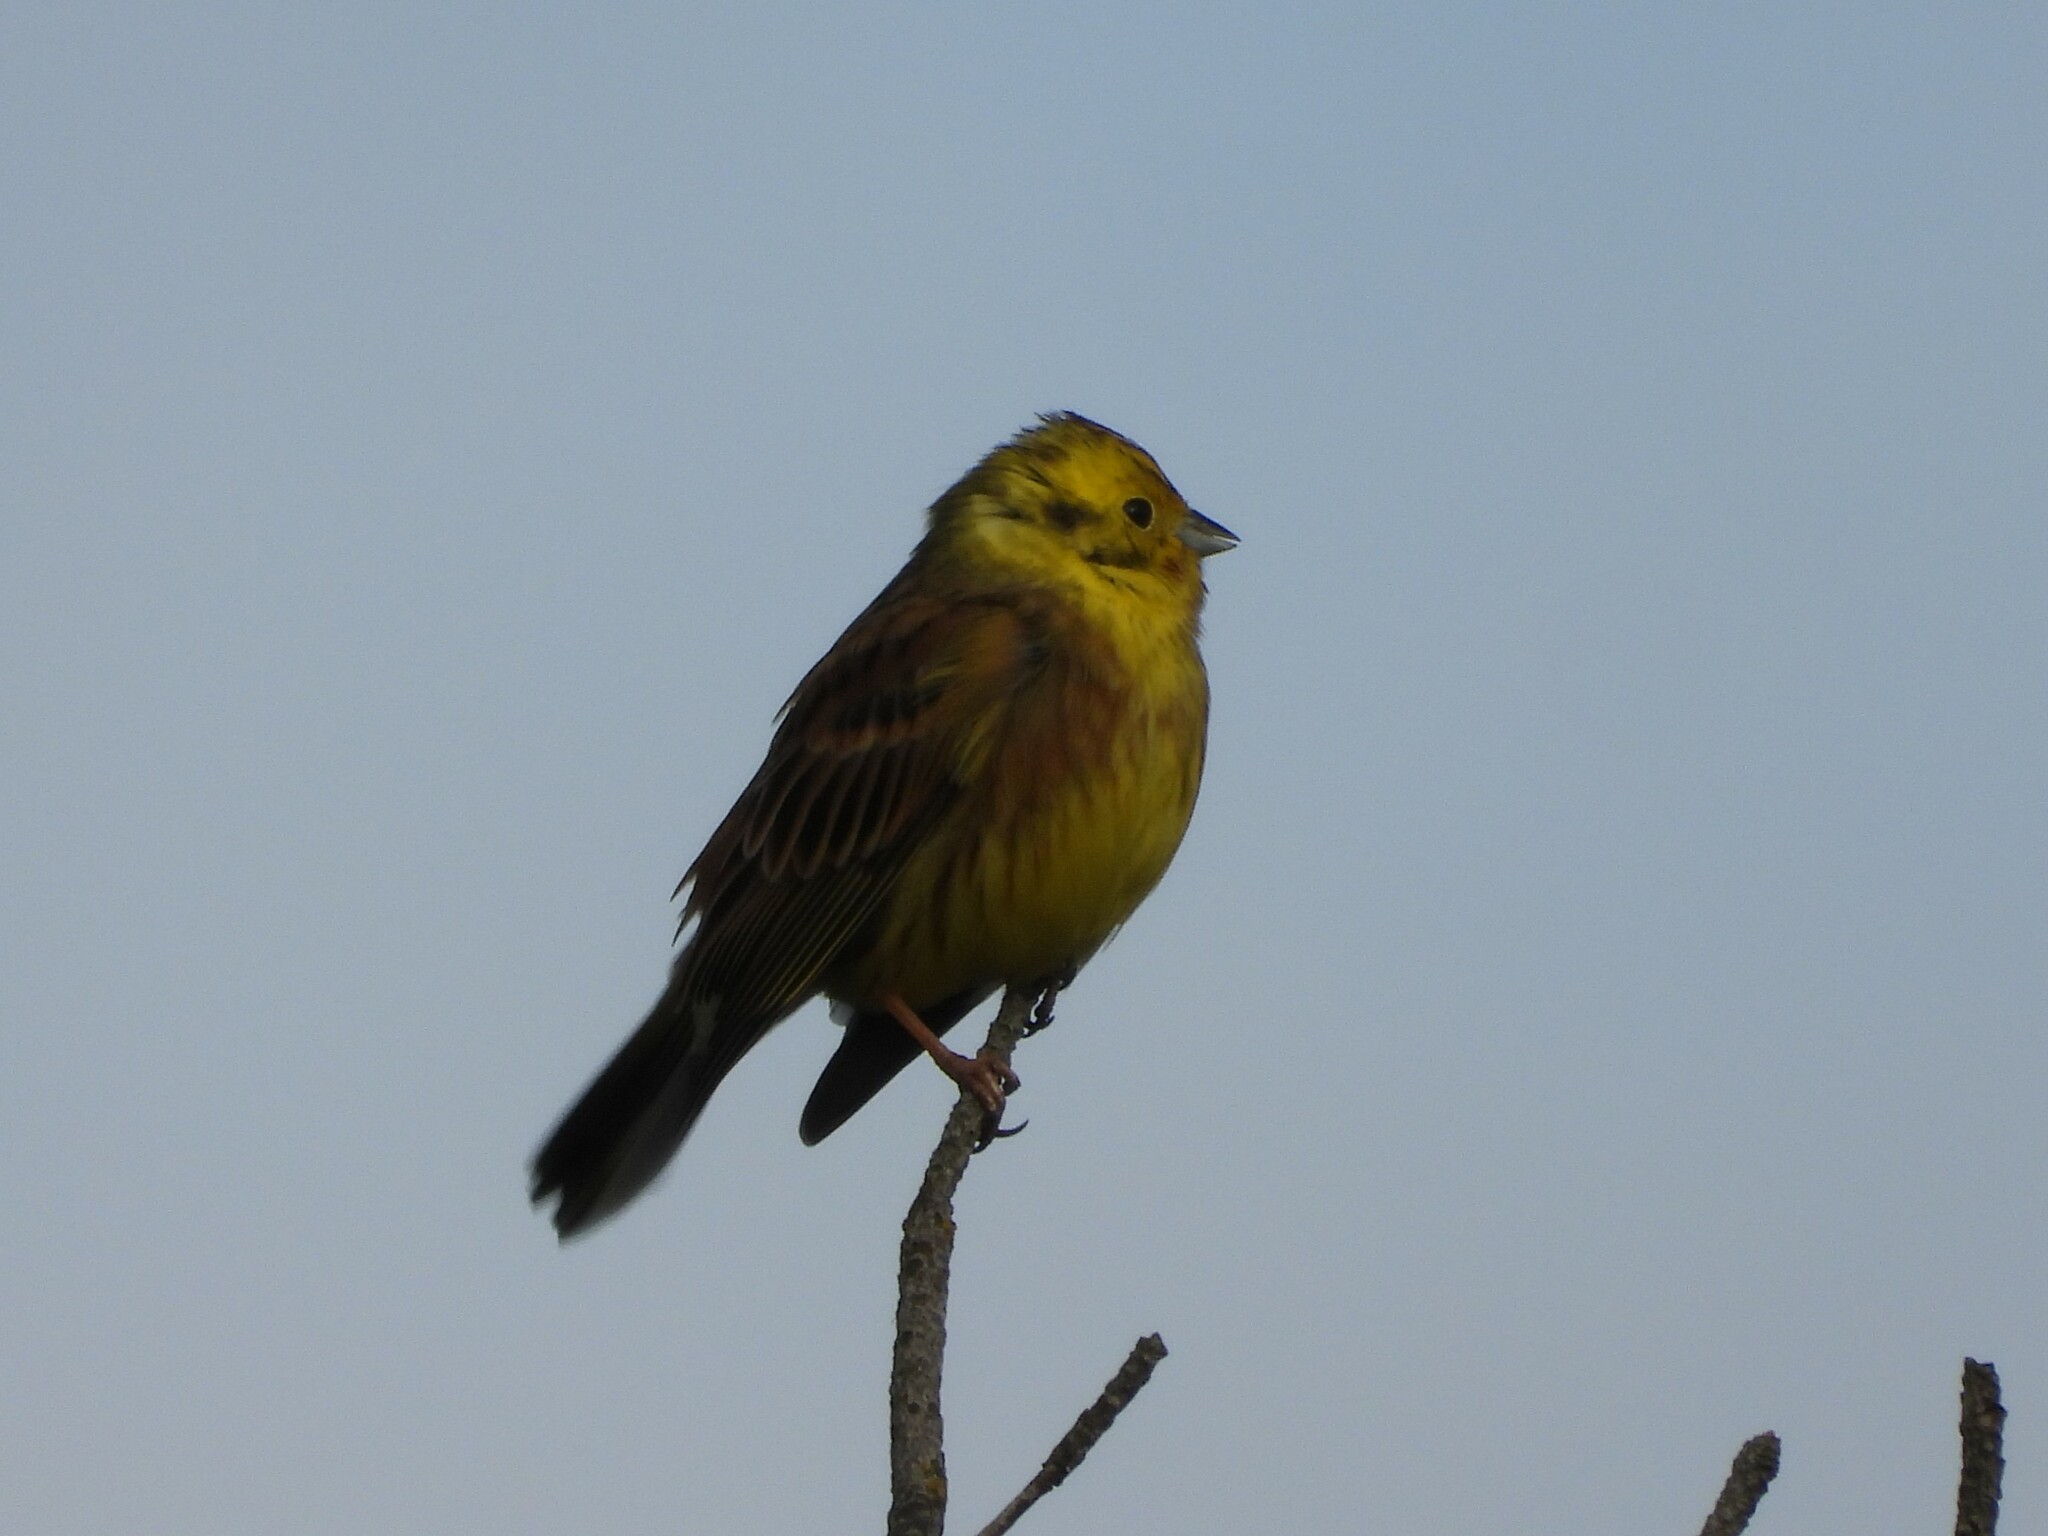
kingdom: Animalia
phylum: Chordata
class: Aves
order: Passeriformes
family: Emberizidae
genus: Emberiza
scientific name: Emberiza citrinella
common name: Yellowhammer
